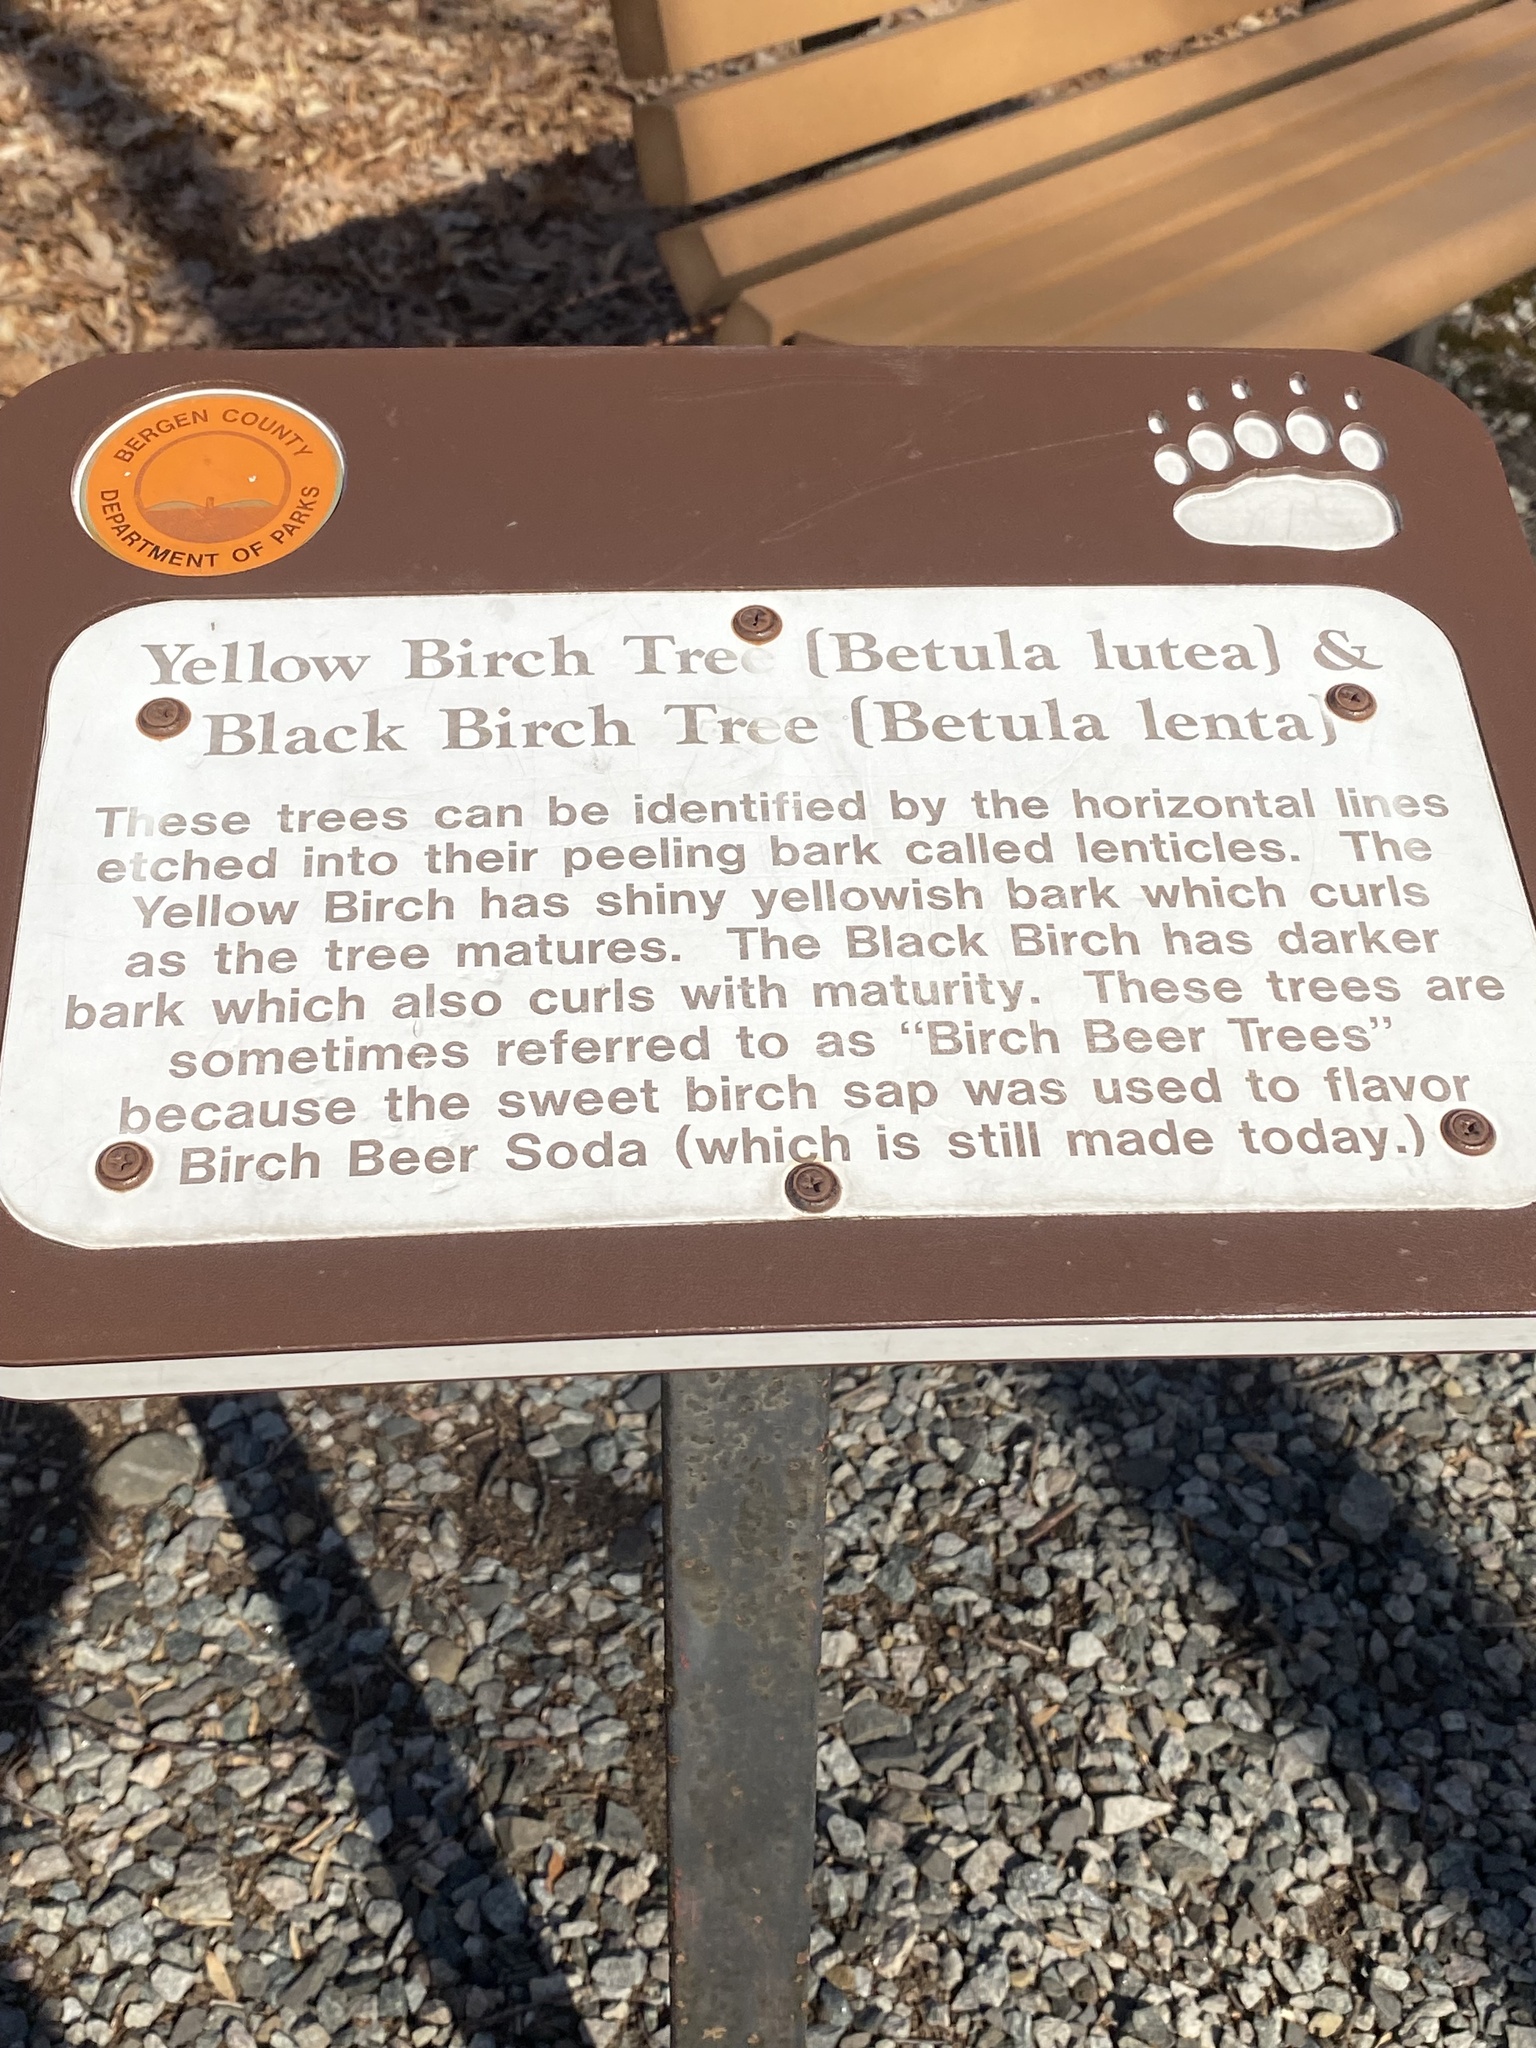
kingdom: Plantae
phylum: Tracheophyta
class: Magnoliopsida
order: Fagales
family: Betulaceae
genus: Betula
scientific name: Betula lenta
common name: Black birch
